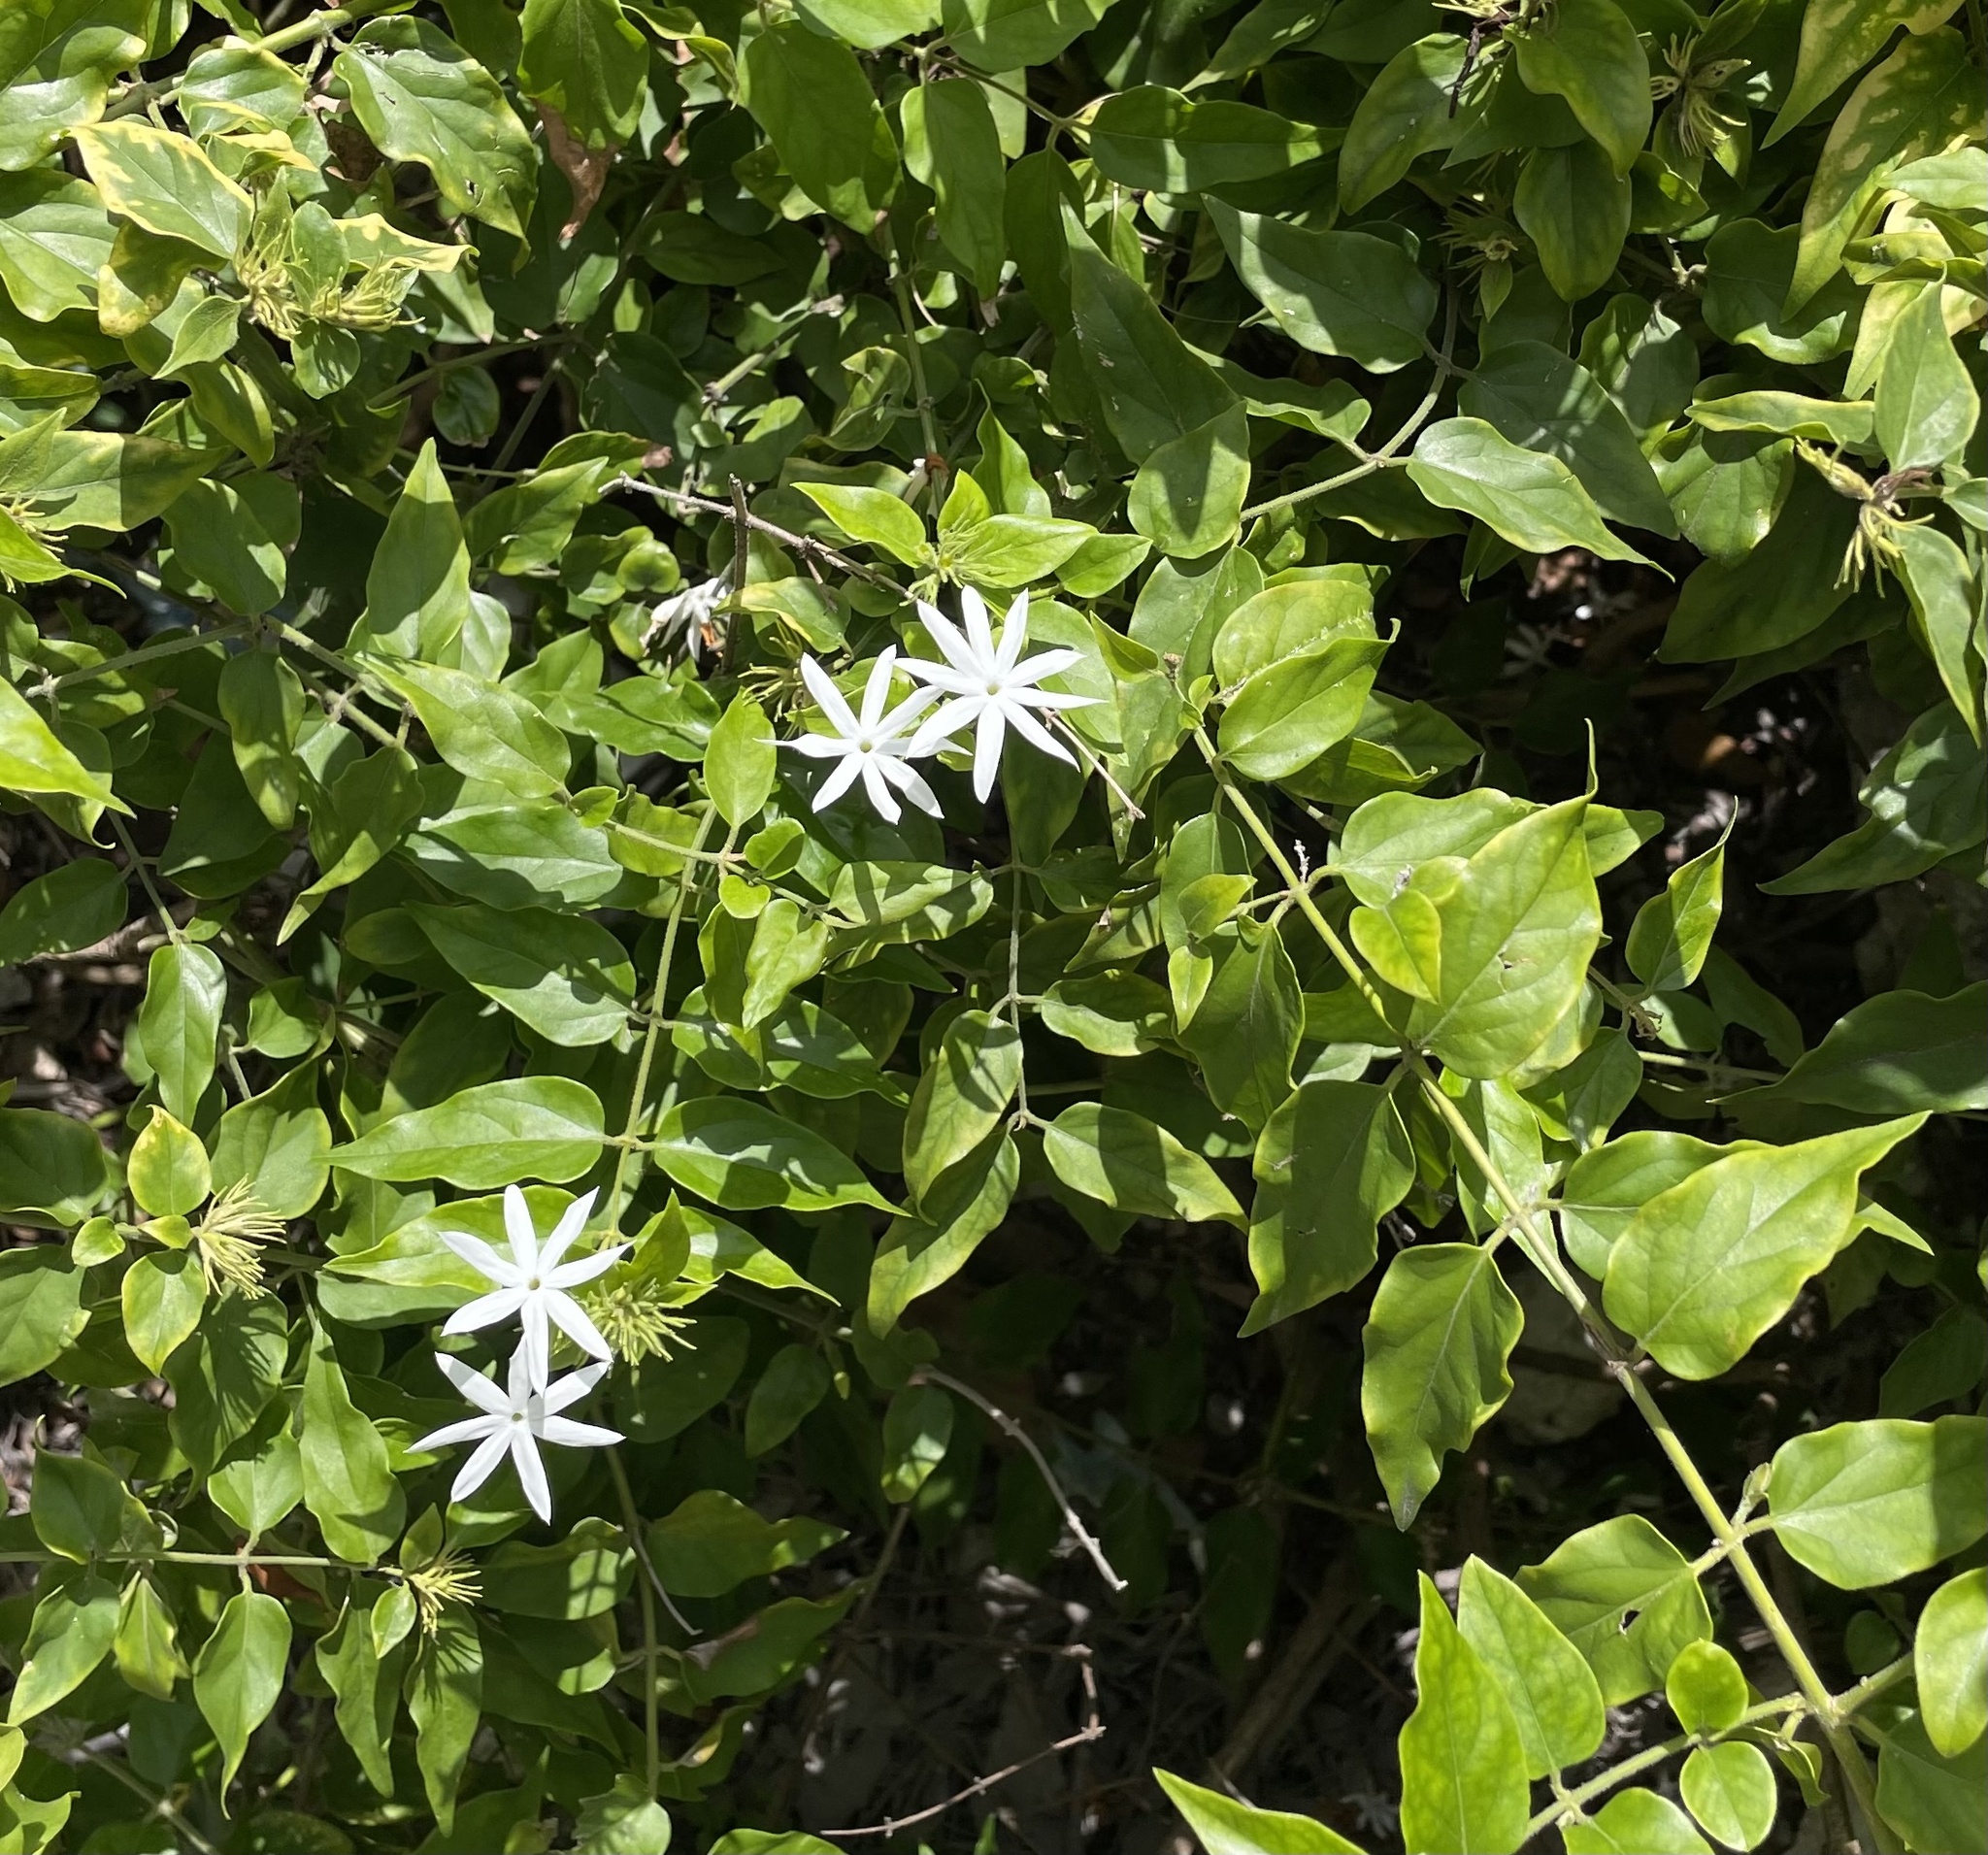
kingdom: Plantae
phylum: Tracheophyta
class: Magnoliopsida
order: Lamiales
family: Oleaceae
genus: Jasminum
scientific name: Jasminum dichotomum
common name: Gold coast jasmine
